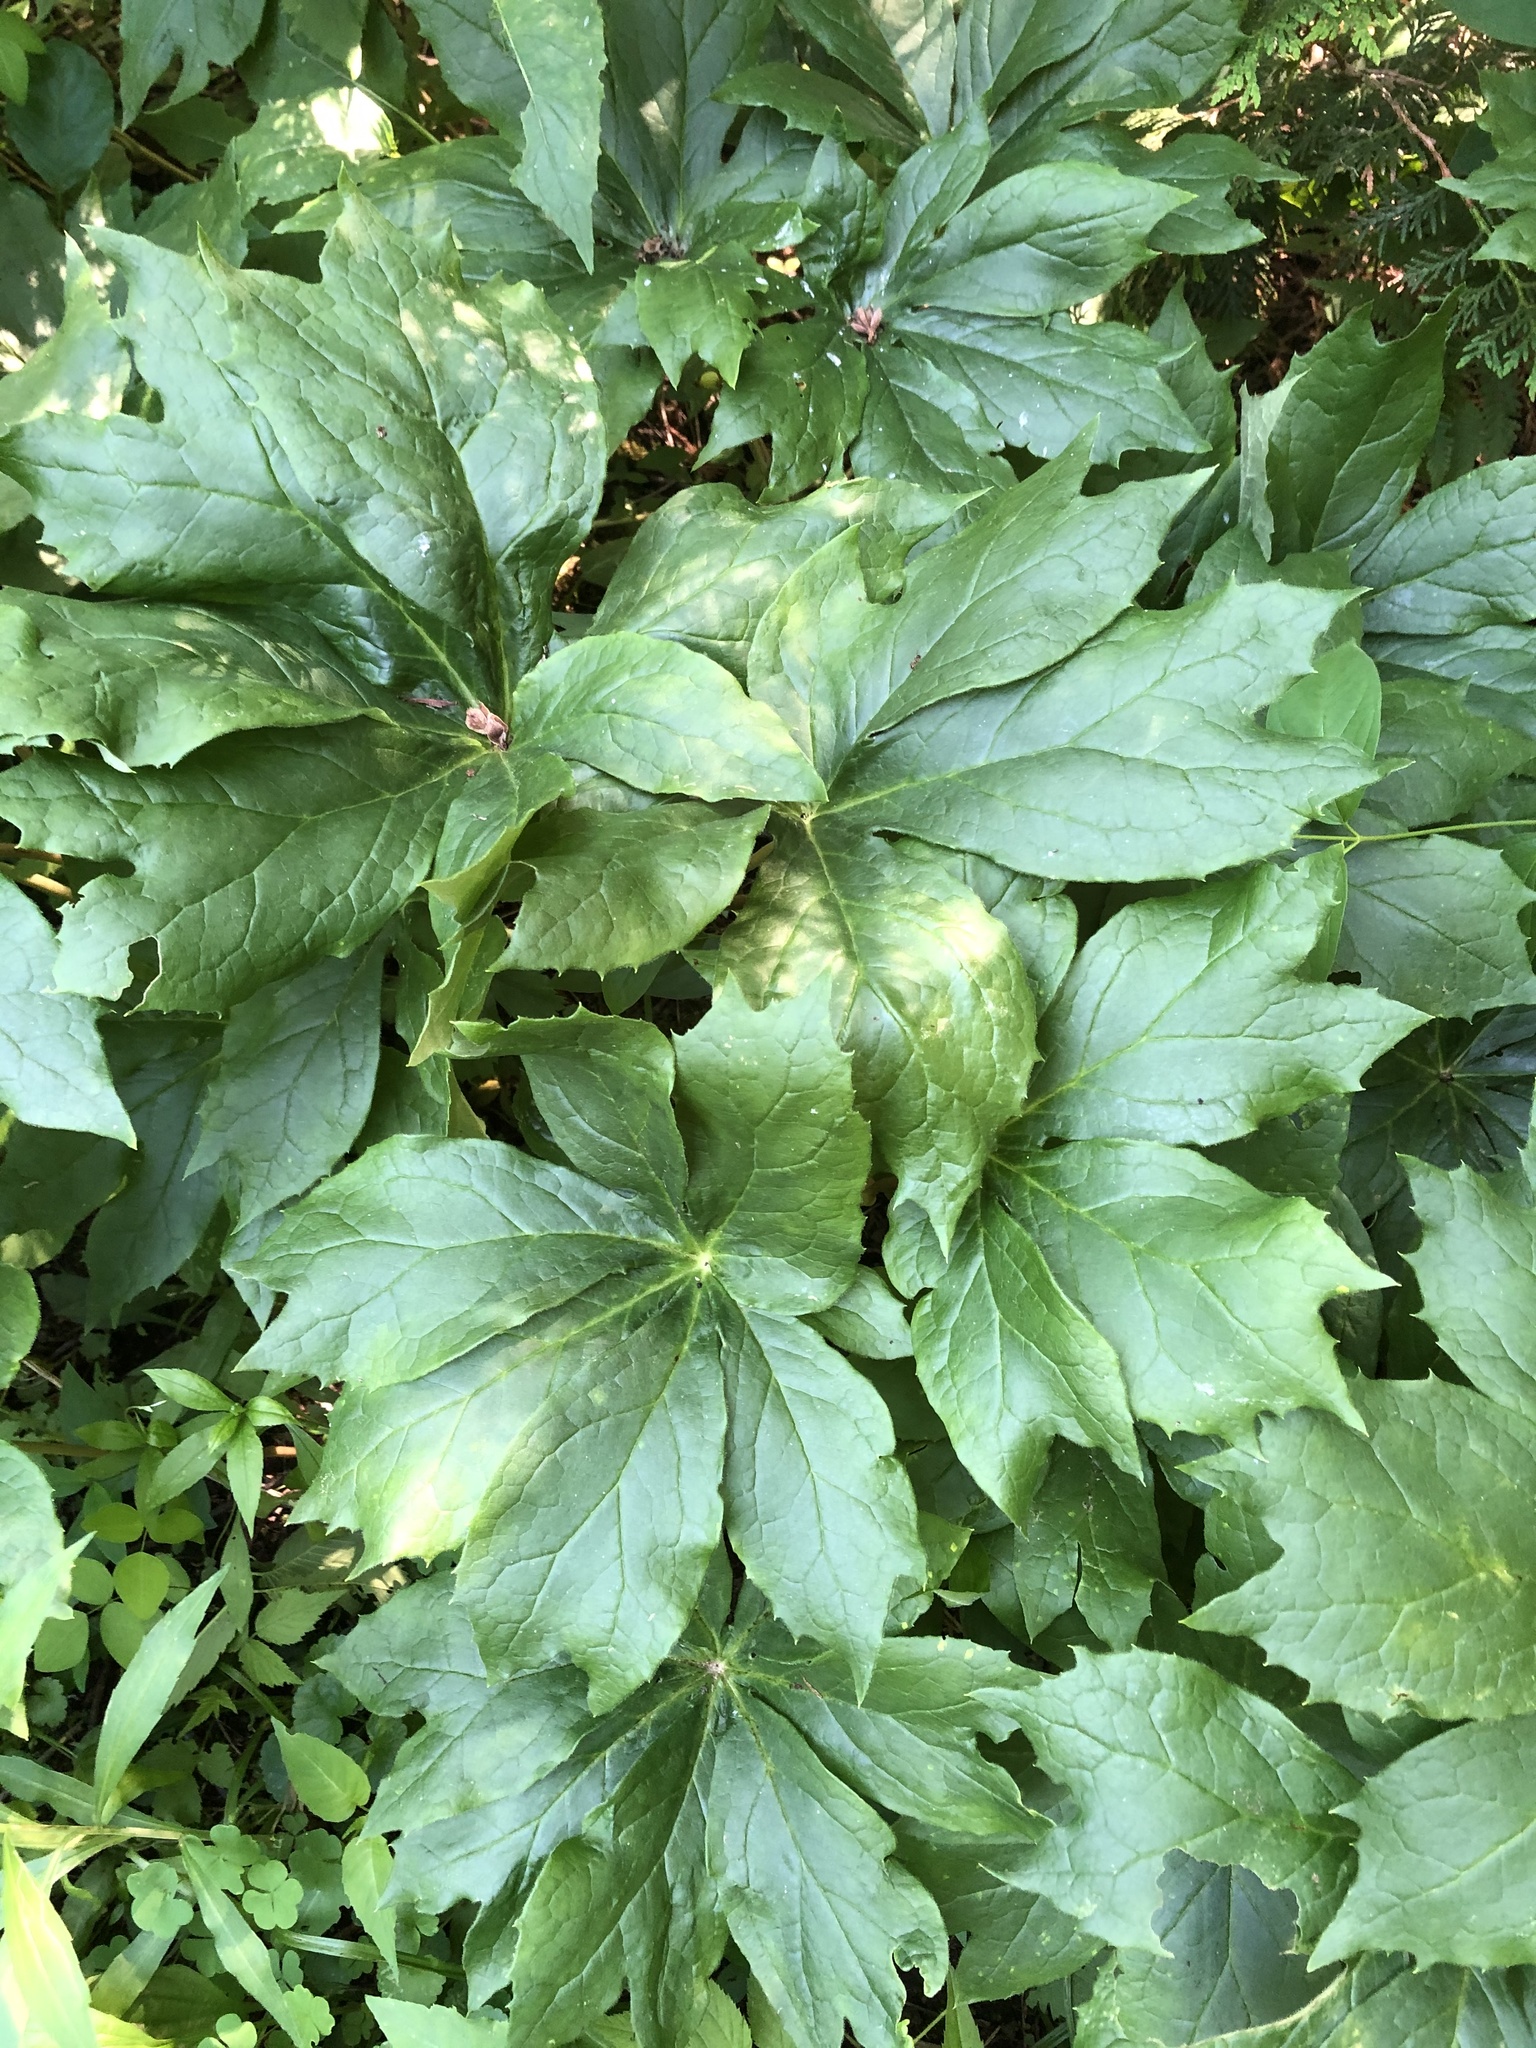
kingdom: Plantae
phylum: Tracheophyta
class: Magnoliopsida
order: Ranunculales
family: Berberidaceae
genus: Podophyllum
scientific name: Podophyllum peltatum
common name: Wild mandrake
